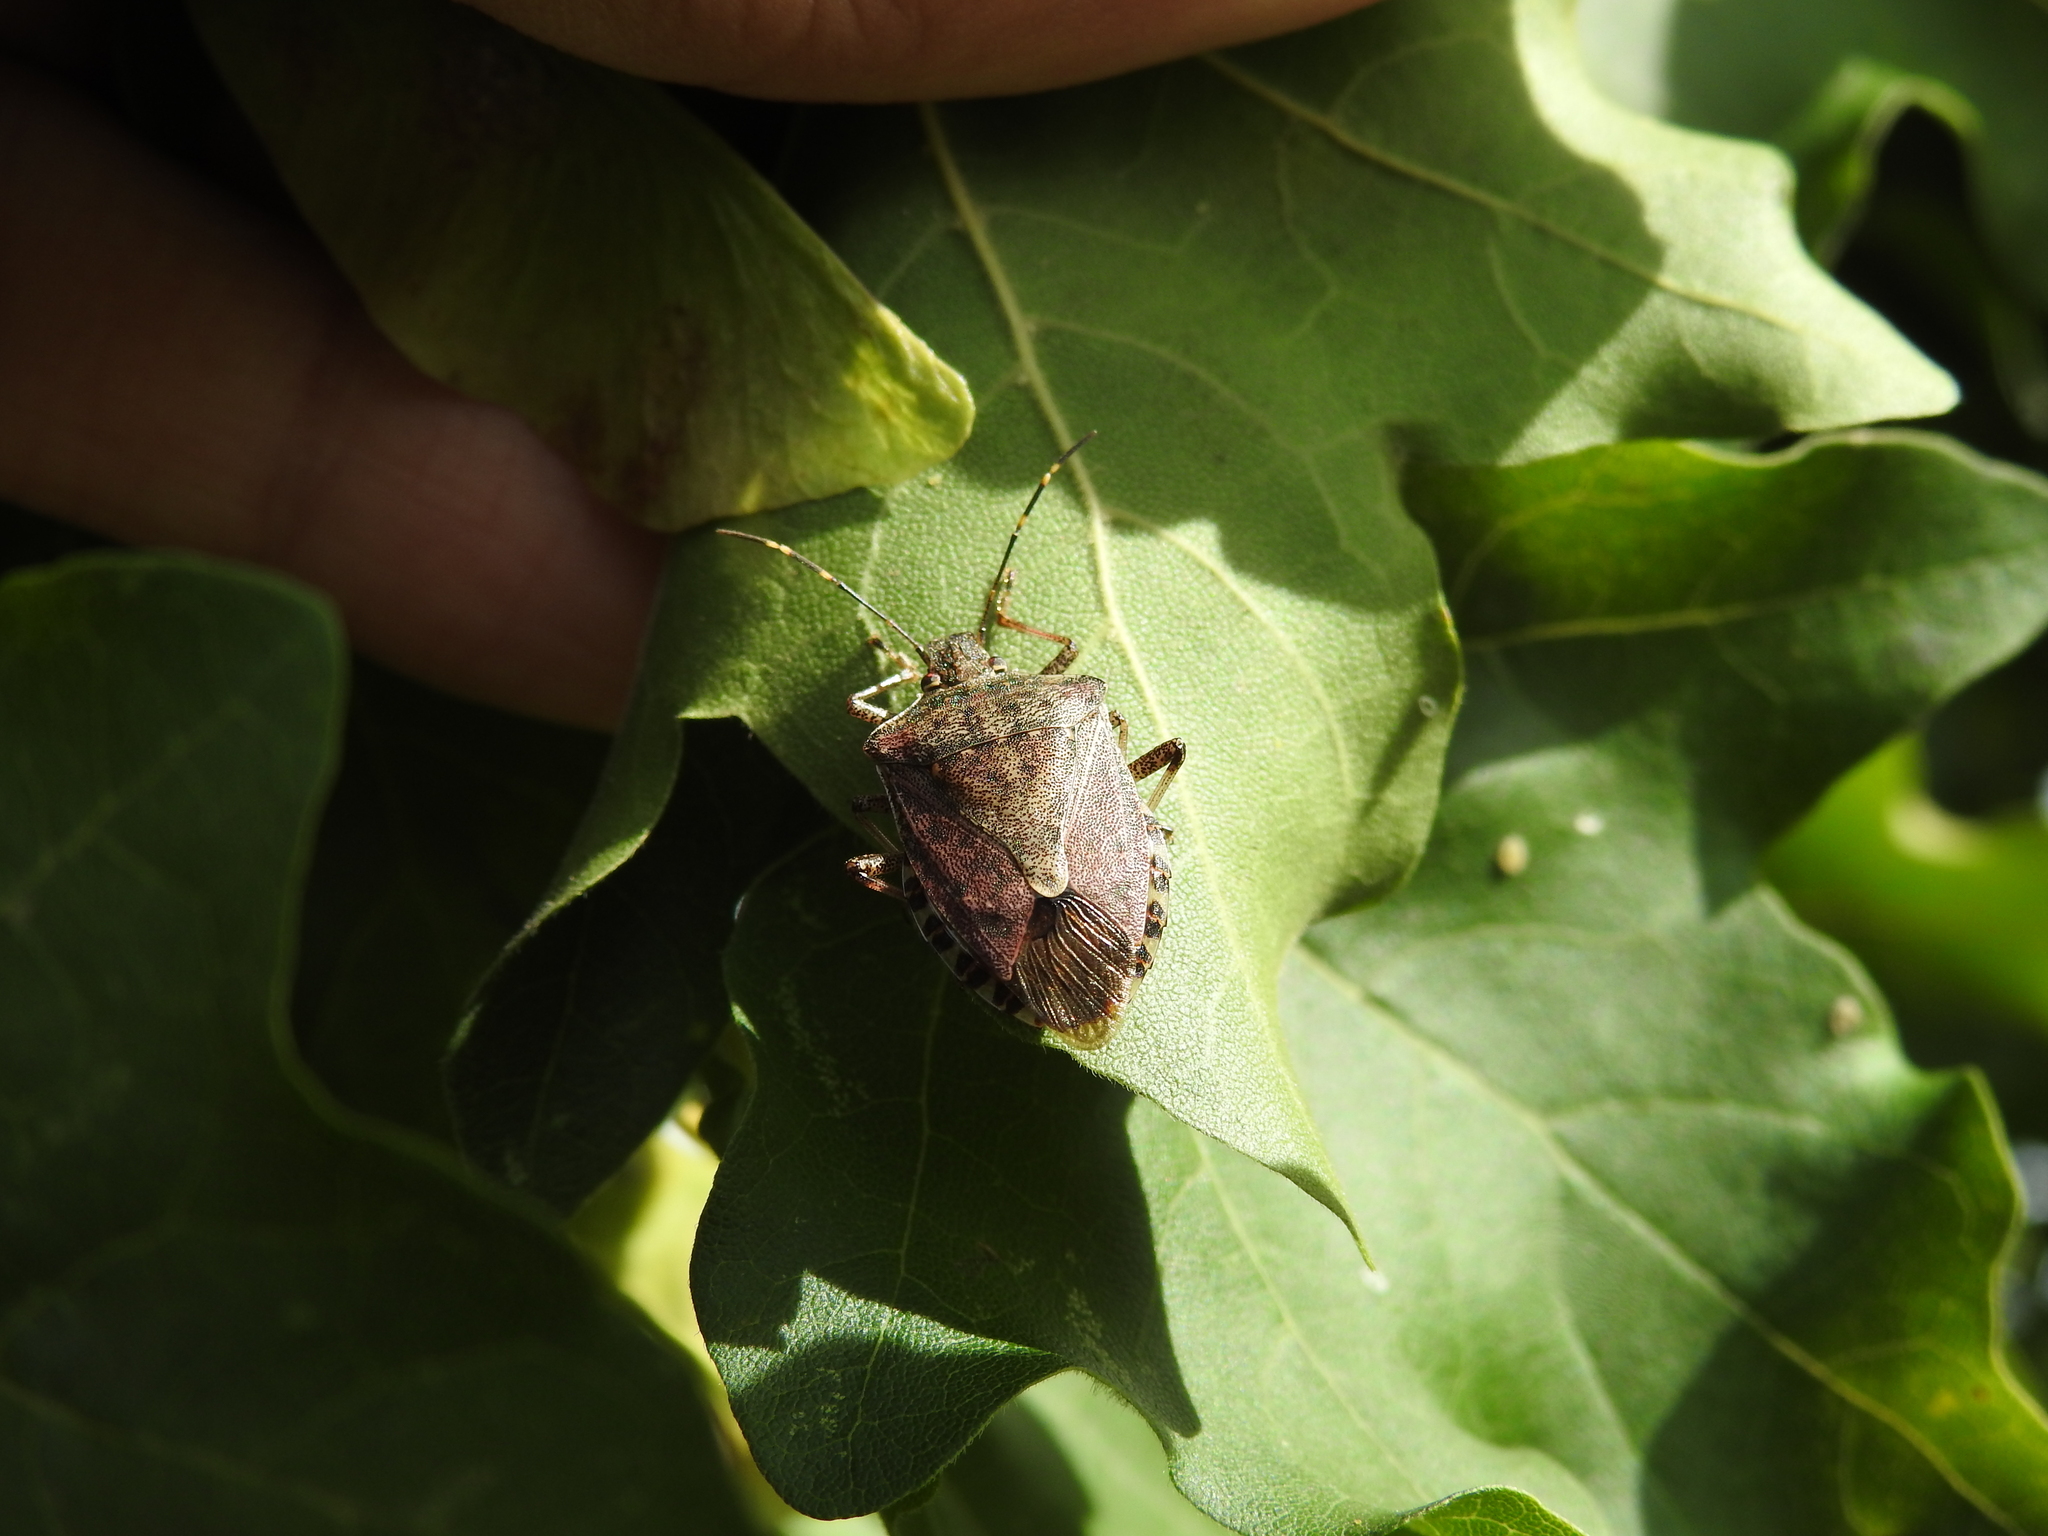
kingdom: Animalia
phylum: Arthropoda
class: Insecta
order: Hemiptera
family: Pentatomidae
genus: Halyomorpha
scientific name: Halyomorpha halys
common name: Brown marmorated stink bug
